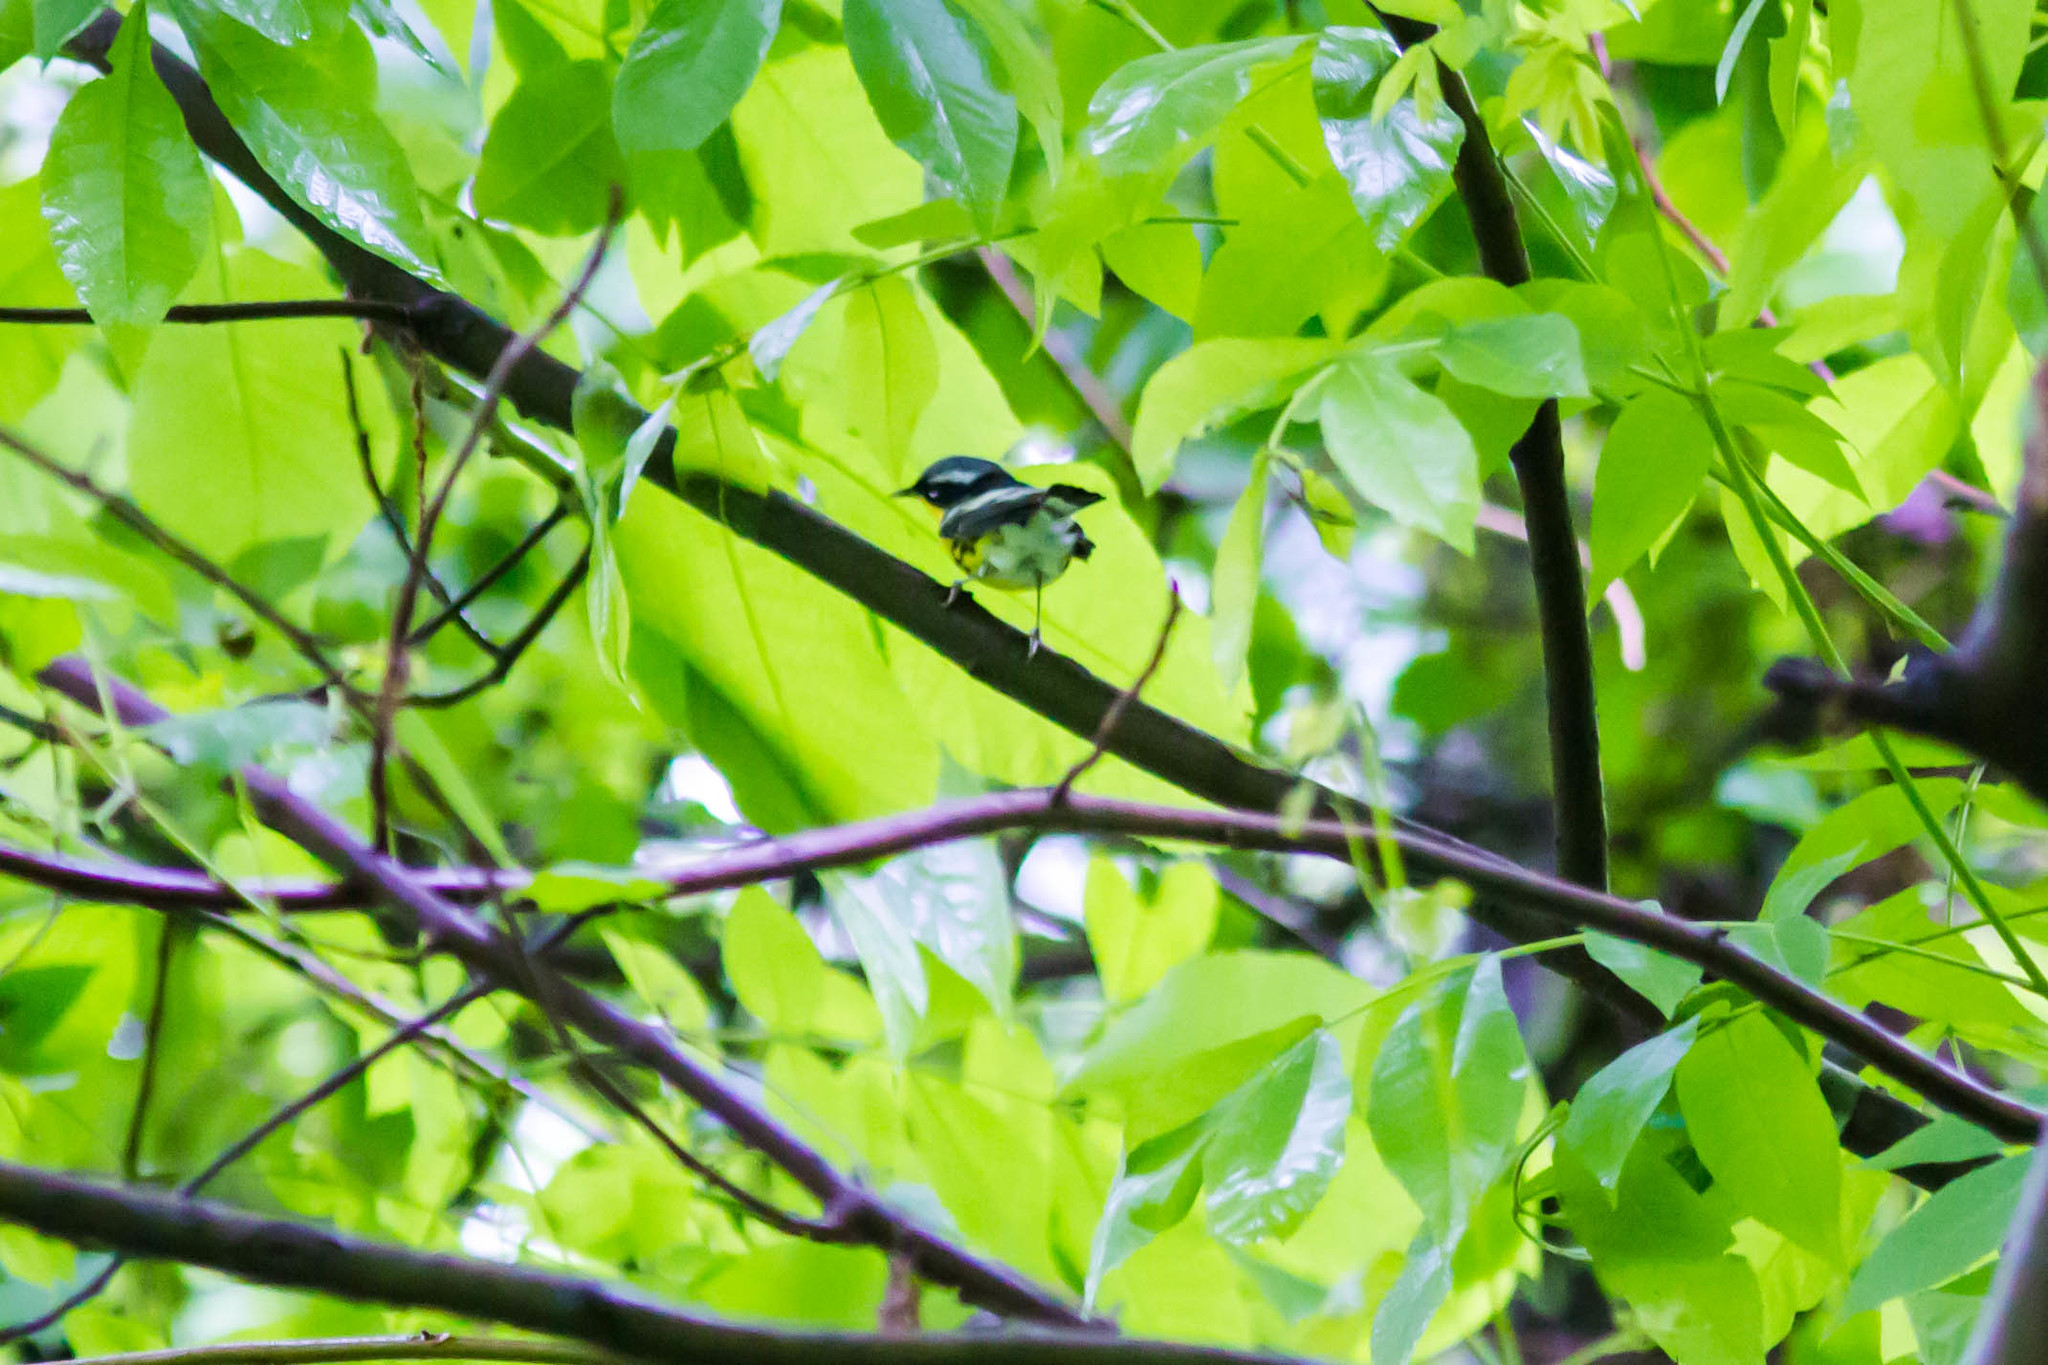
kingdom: Animalia
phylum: Chordata
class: Aves
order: Passeriformes
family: Parulidae
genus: Setophaga
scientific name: Setophaga magnolia
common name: Magnolia warbler
